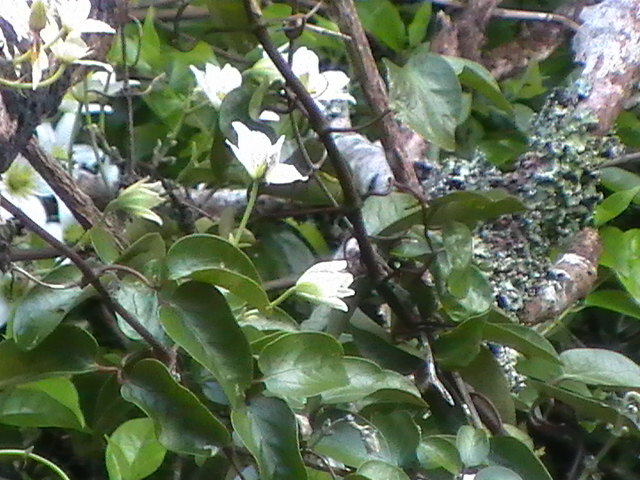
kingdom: Plantae
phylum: Tracheophyta
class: Magnoliopsida
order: Ranunculales
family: Ranunculaceae
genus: Clematis
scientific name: Clematis paniculata
